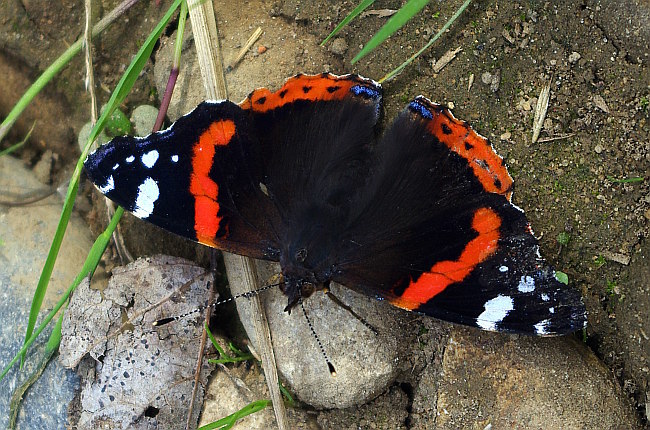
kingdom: Animalia
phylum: Arthropoda
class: Insecta
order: Lepidoptera
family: Nymphalidae
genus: Vanessa
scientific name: Vanessa atalanta
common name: Red admiral
